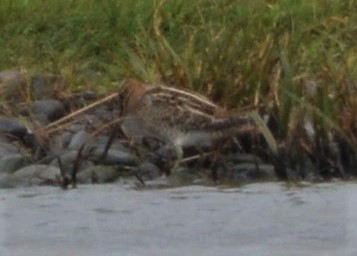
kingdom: Animalia
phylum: Chordata
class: Aves
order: Charadriiformes
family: Scolopacidae
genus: Gallinago
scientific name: Gallinago gallinago
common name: Common snipe
